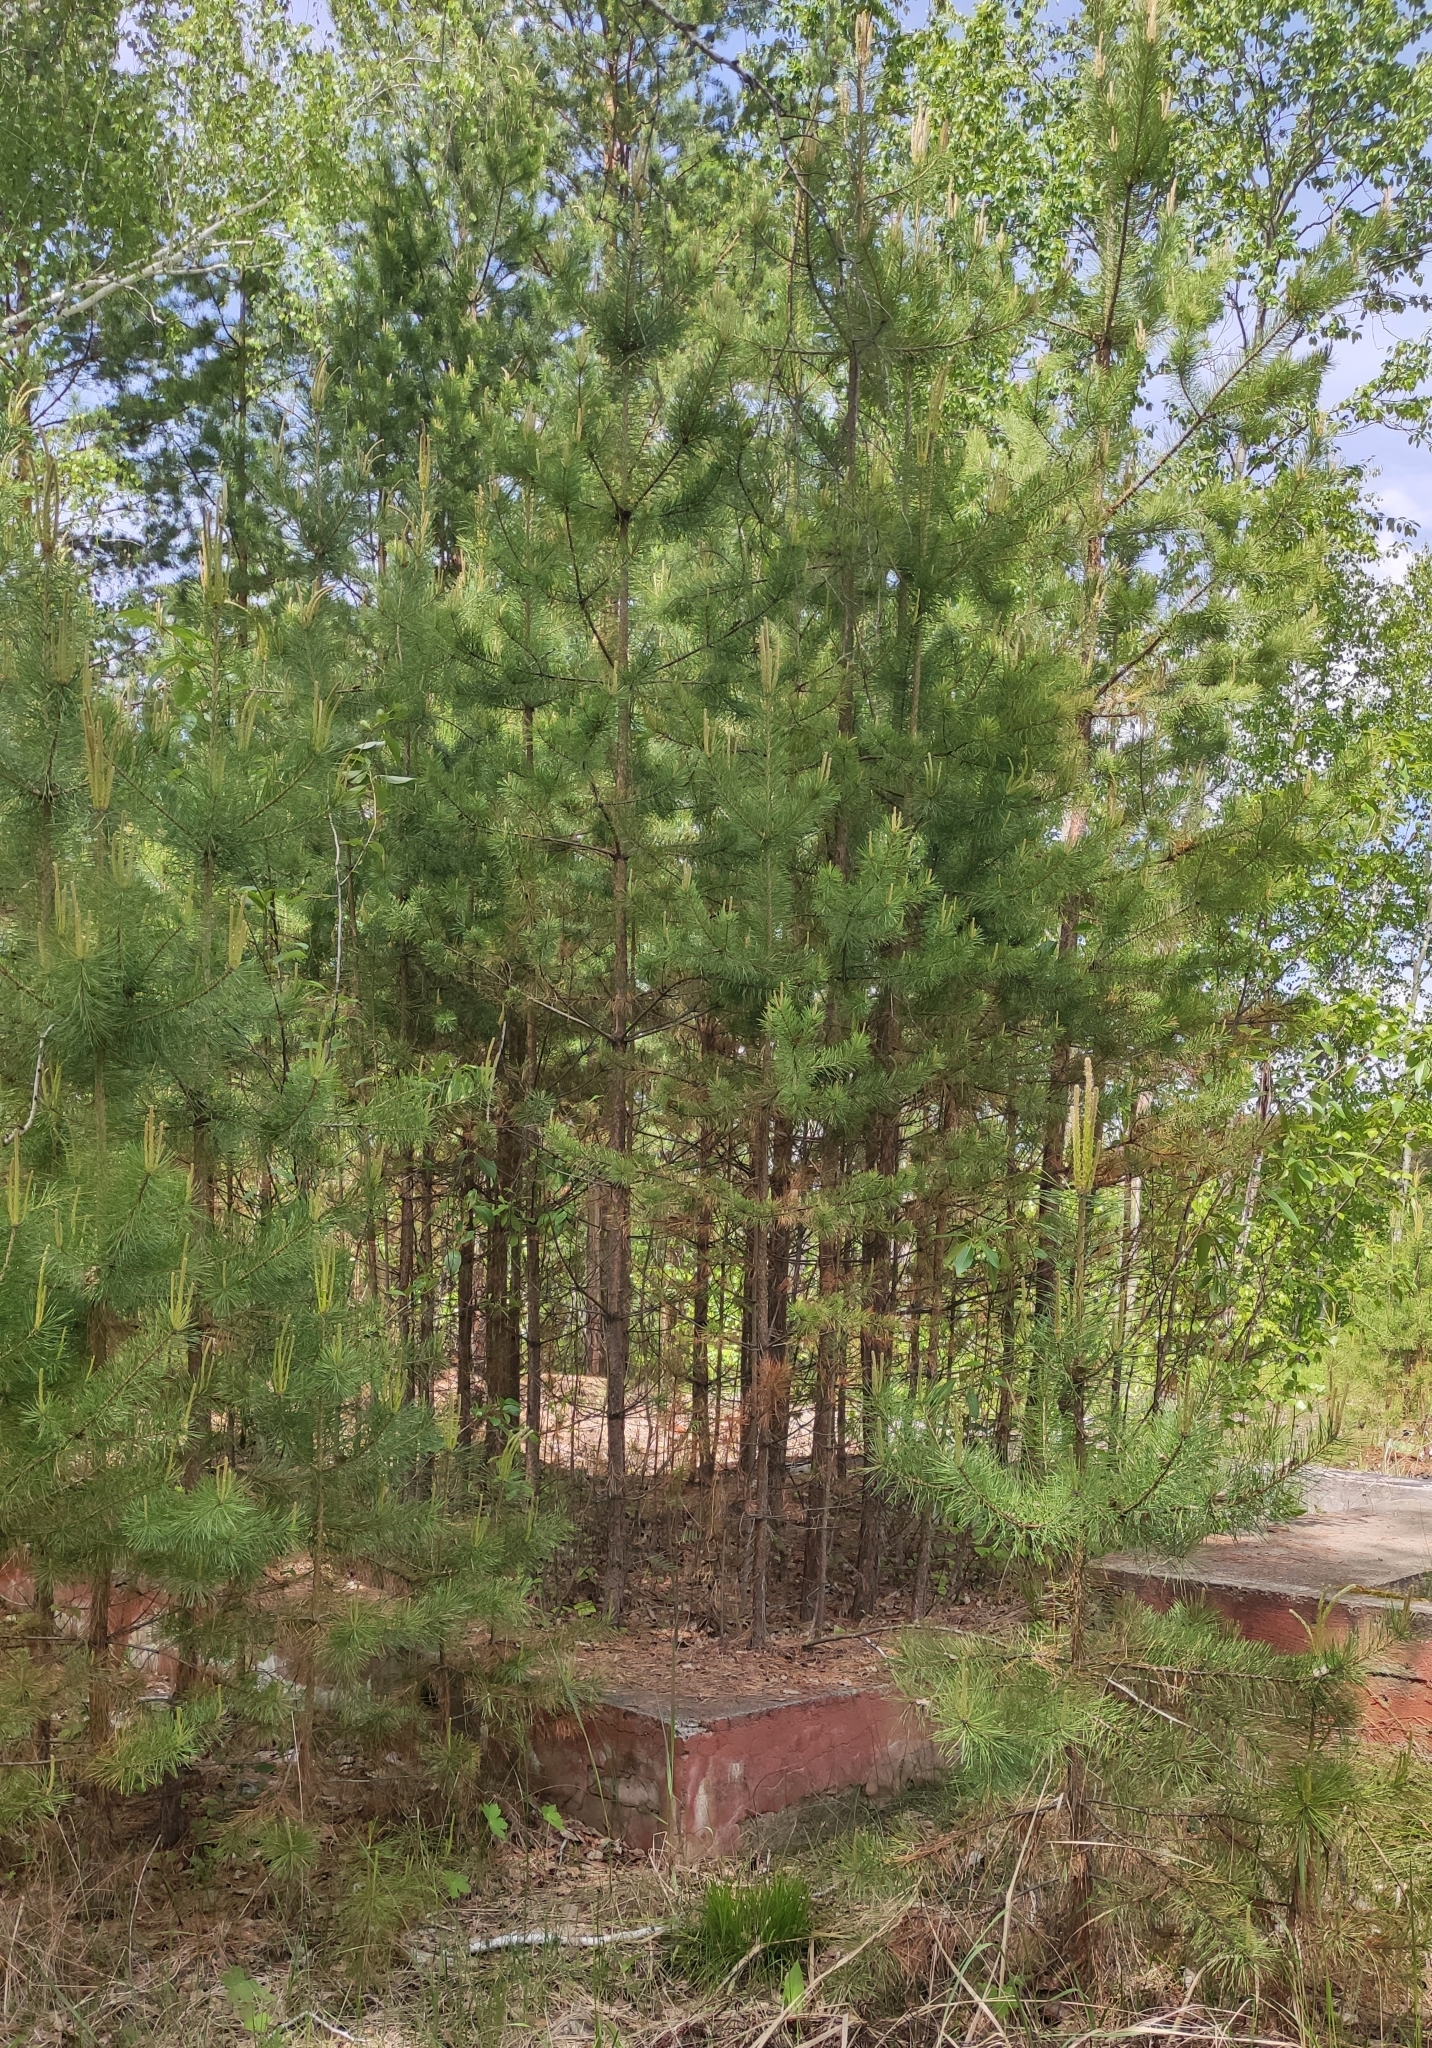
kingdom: Plantae
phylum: Tracheophyta
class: Pinopsida
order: Pinales
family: Pinaceae
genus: Pinus
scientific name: Pinus sylvestris
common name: Scots pine
